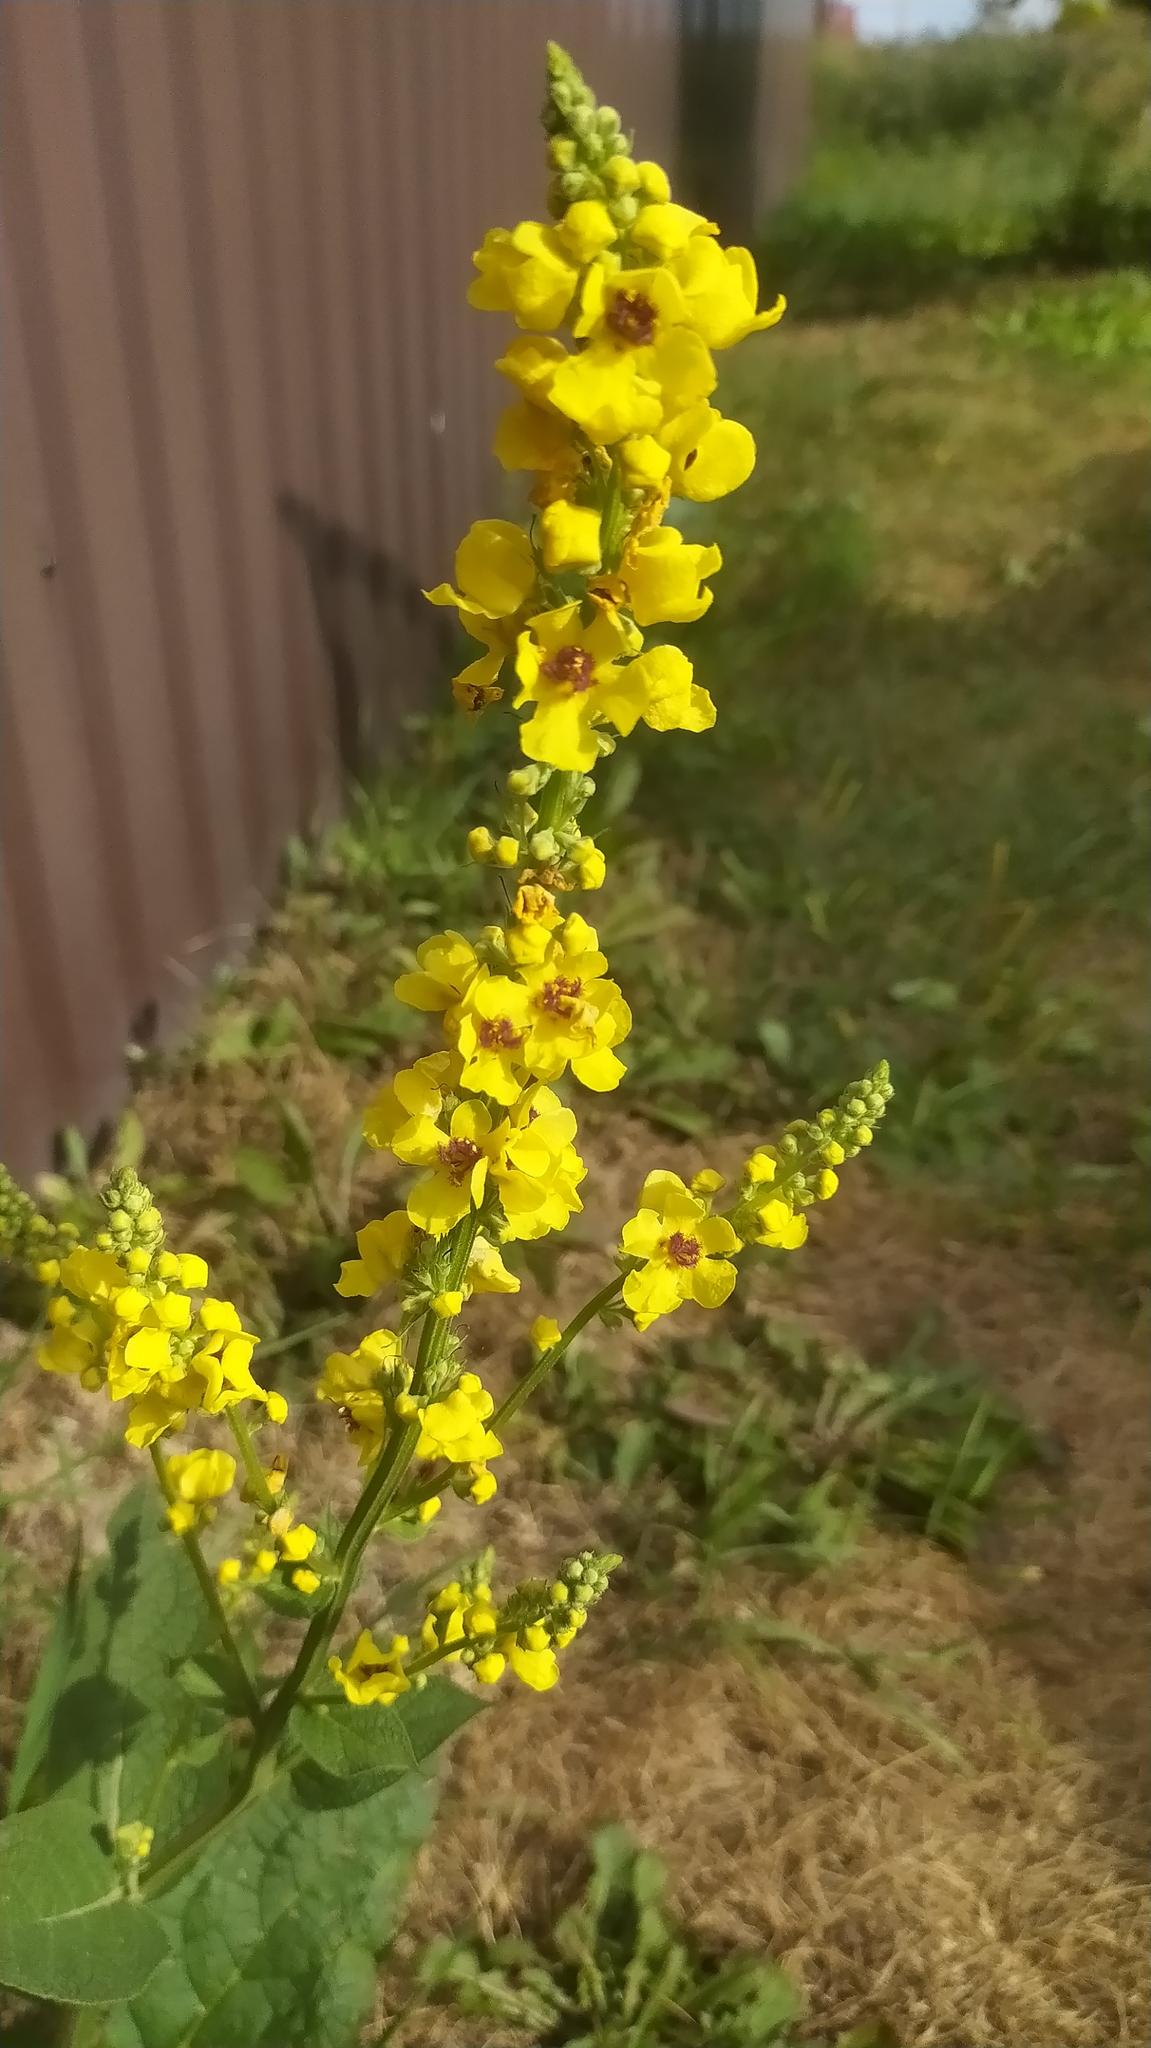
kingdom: Plantae
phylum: Tracheophyta
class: Magnoliopsida
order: Lamiales
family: Scrophulariaceae
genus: Verbascum
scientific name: Verbascum nigrum
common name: Dark mullein
